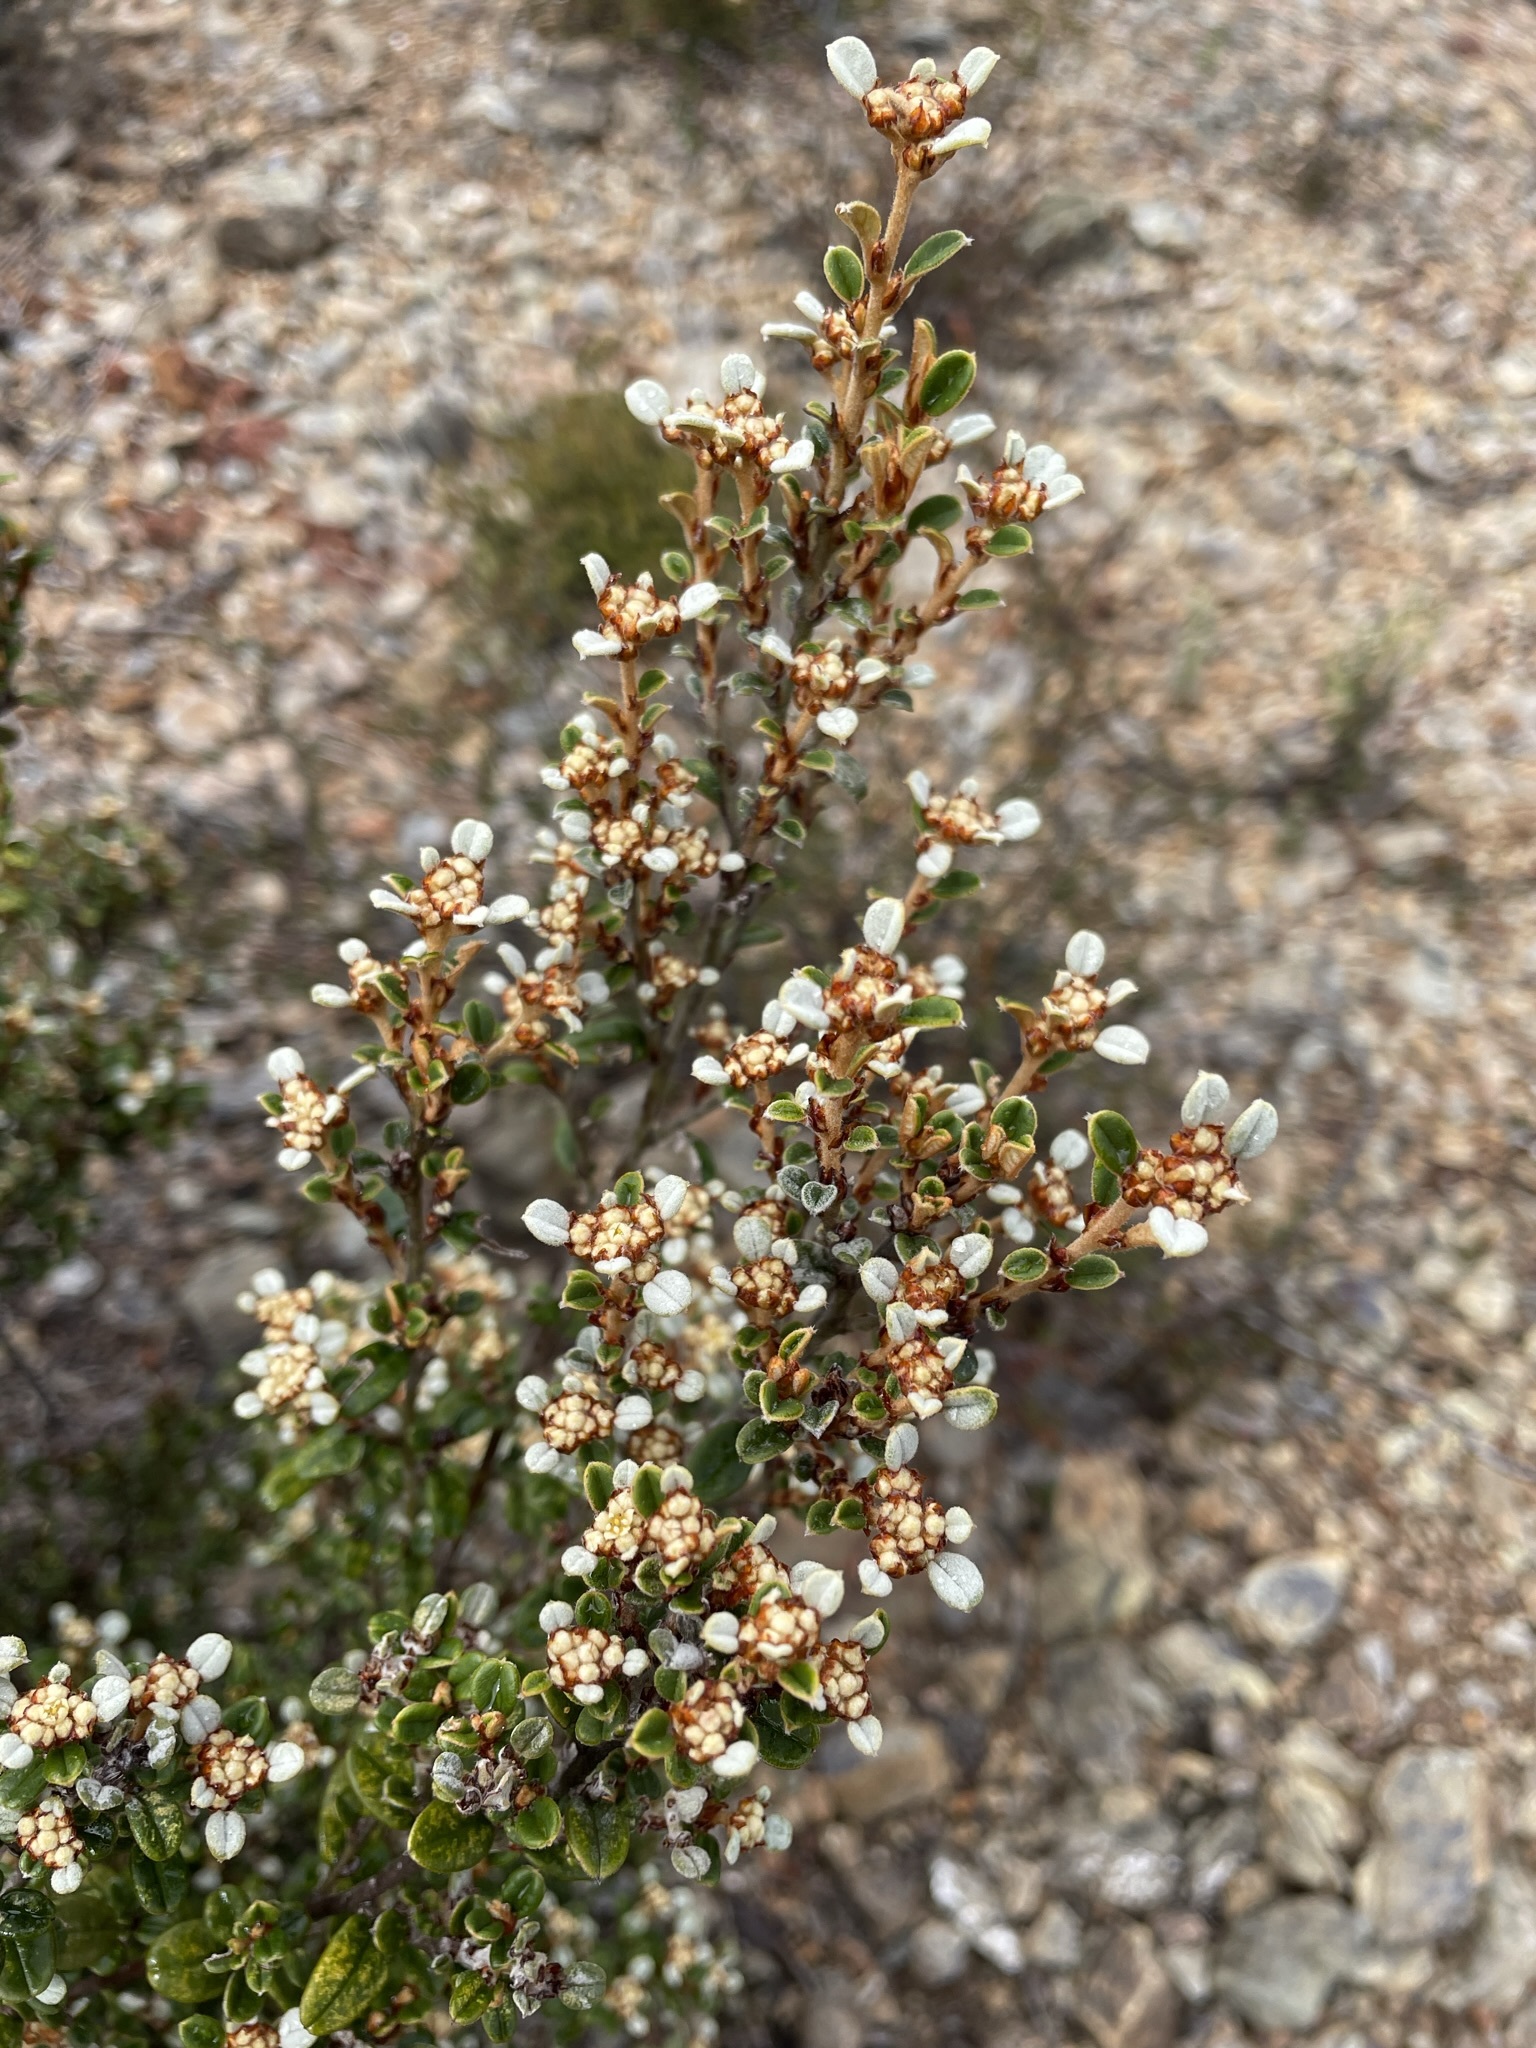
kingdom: Plantae
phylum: Tracheophyta
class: Magnoliopsida
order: Rosales
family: Rhamnaceae
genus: Spyridium
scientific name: Spyridium gunnii
